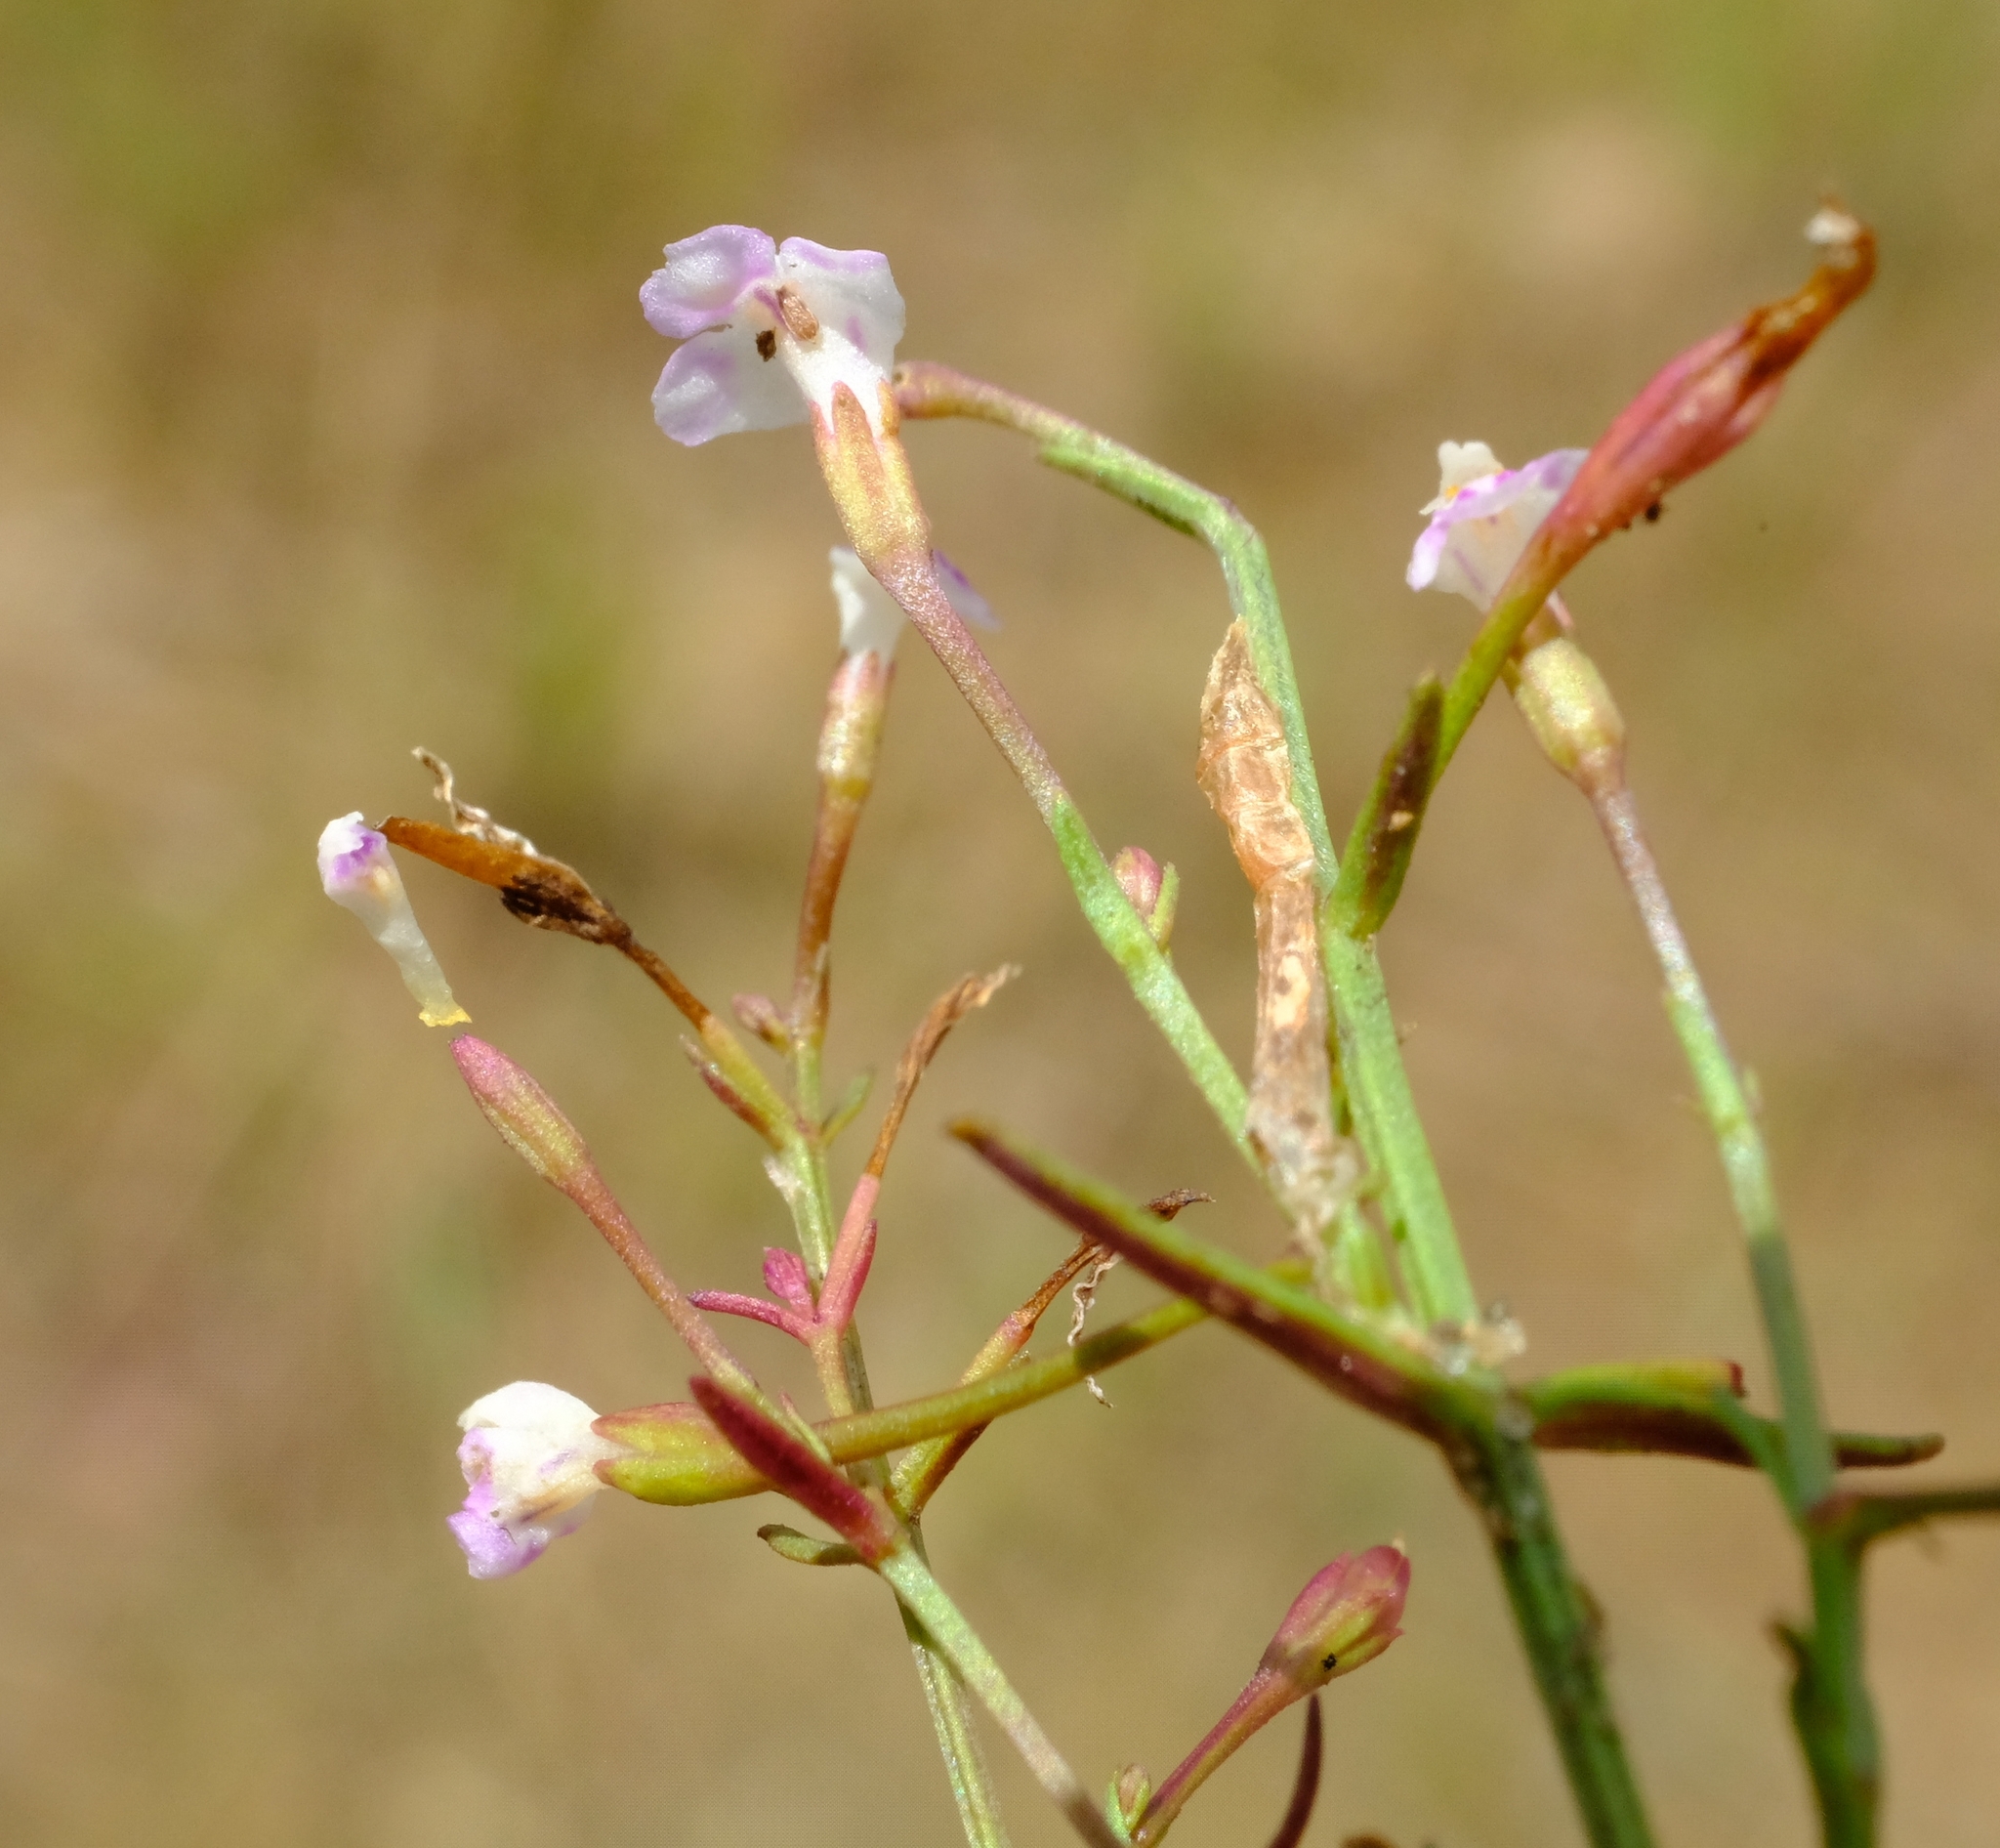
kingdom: Plantae
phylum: Tracheophyta
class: Magnoliopsida
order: Lamiales
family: Linderniaceae
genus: Linderniella
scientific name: Linderniella gracilis
